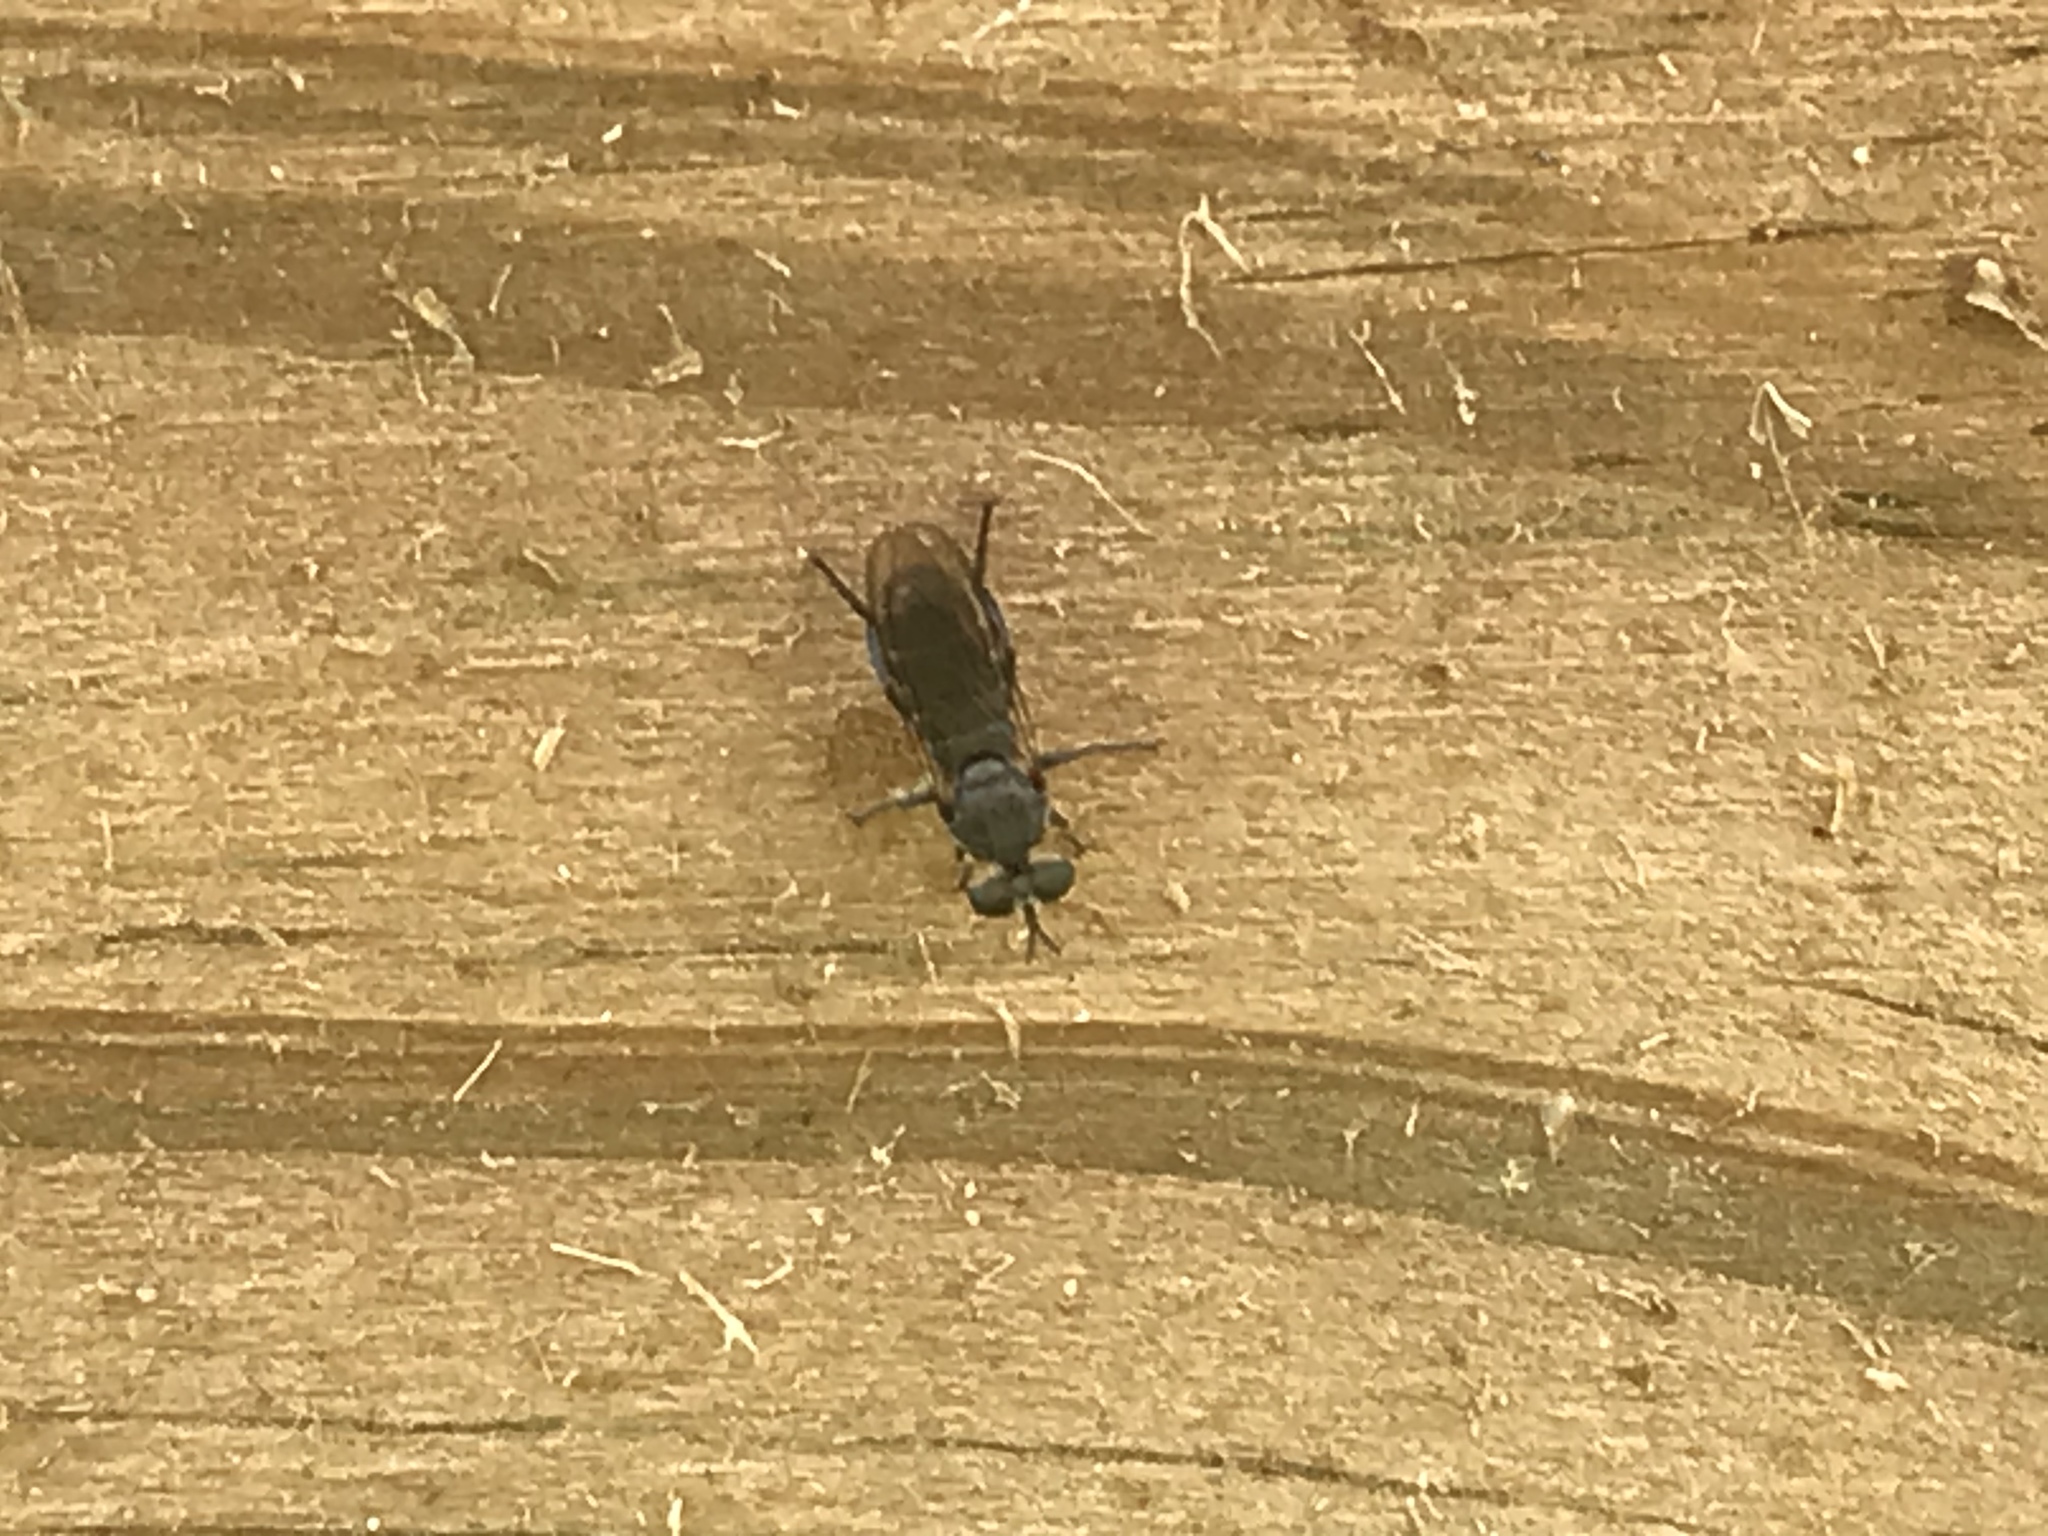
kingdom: Animalia
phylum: Arthropoda
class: Insecta
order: Diptera
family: Asilidae
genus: Atomosia
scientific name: Atomosia puella
